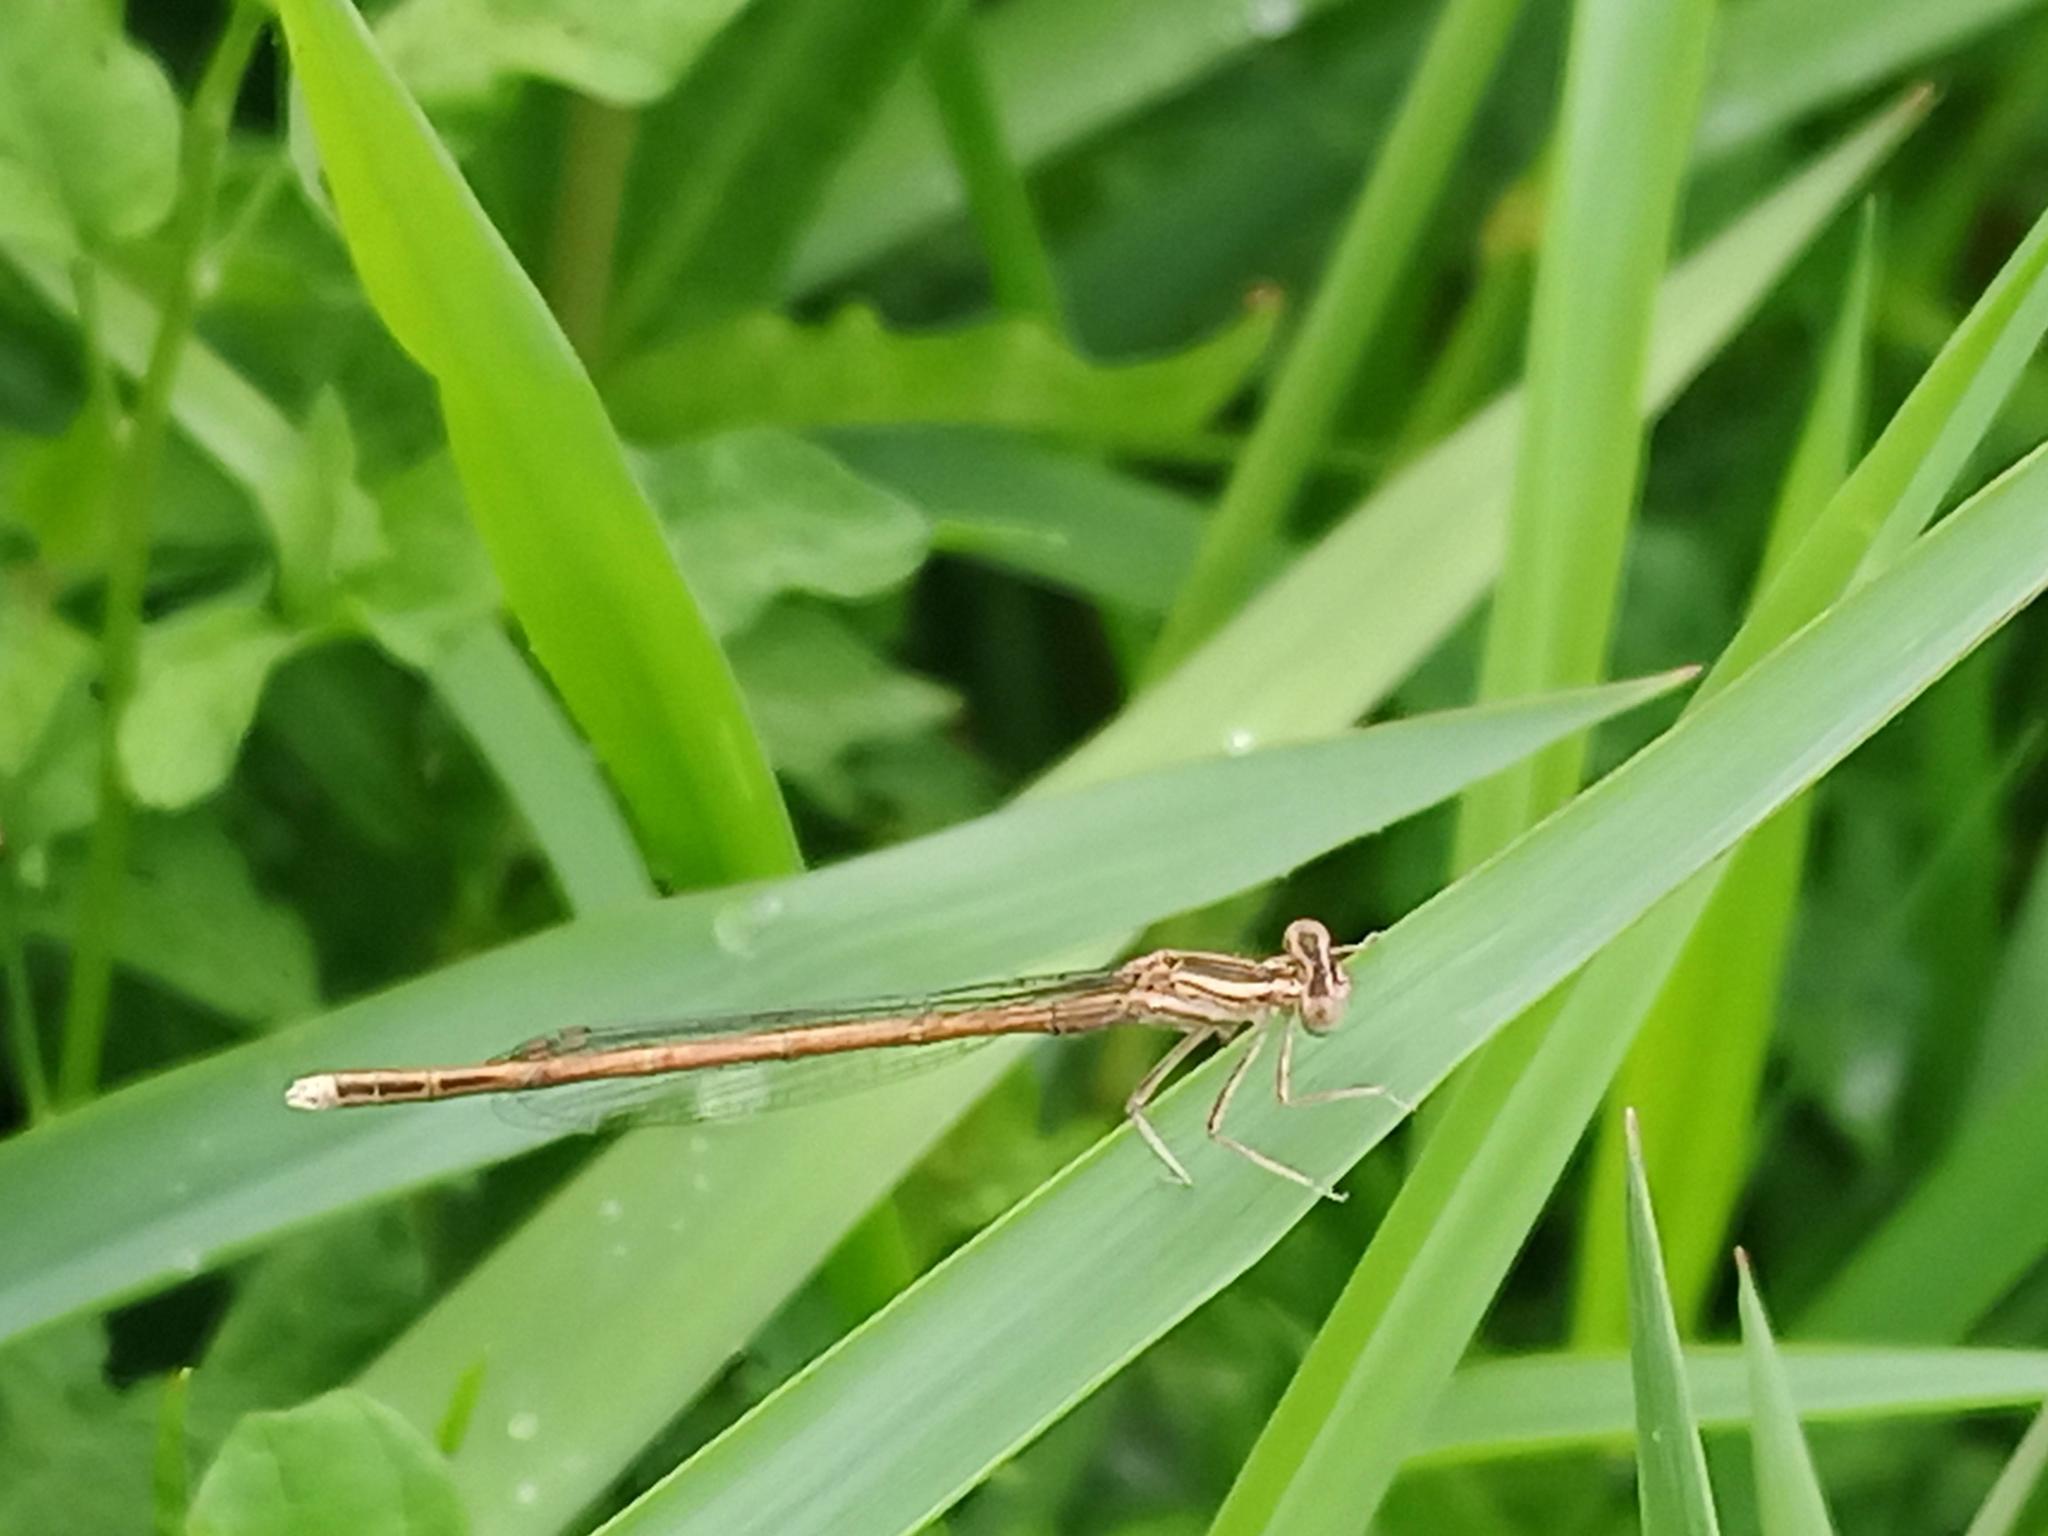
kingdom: Animalia
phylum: Arthropoda
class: Insecta
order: Odonata
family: Platycnemididae
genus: Platycnemis
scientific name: Platycnemis acutipennis
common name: Orange featherleg
